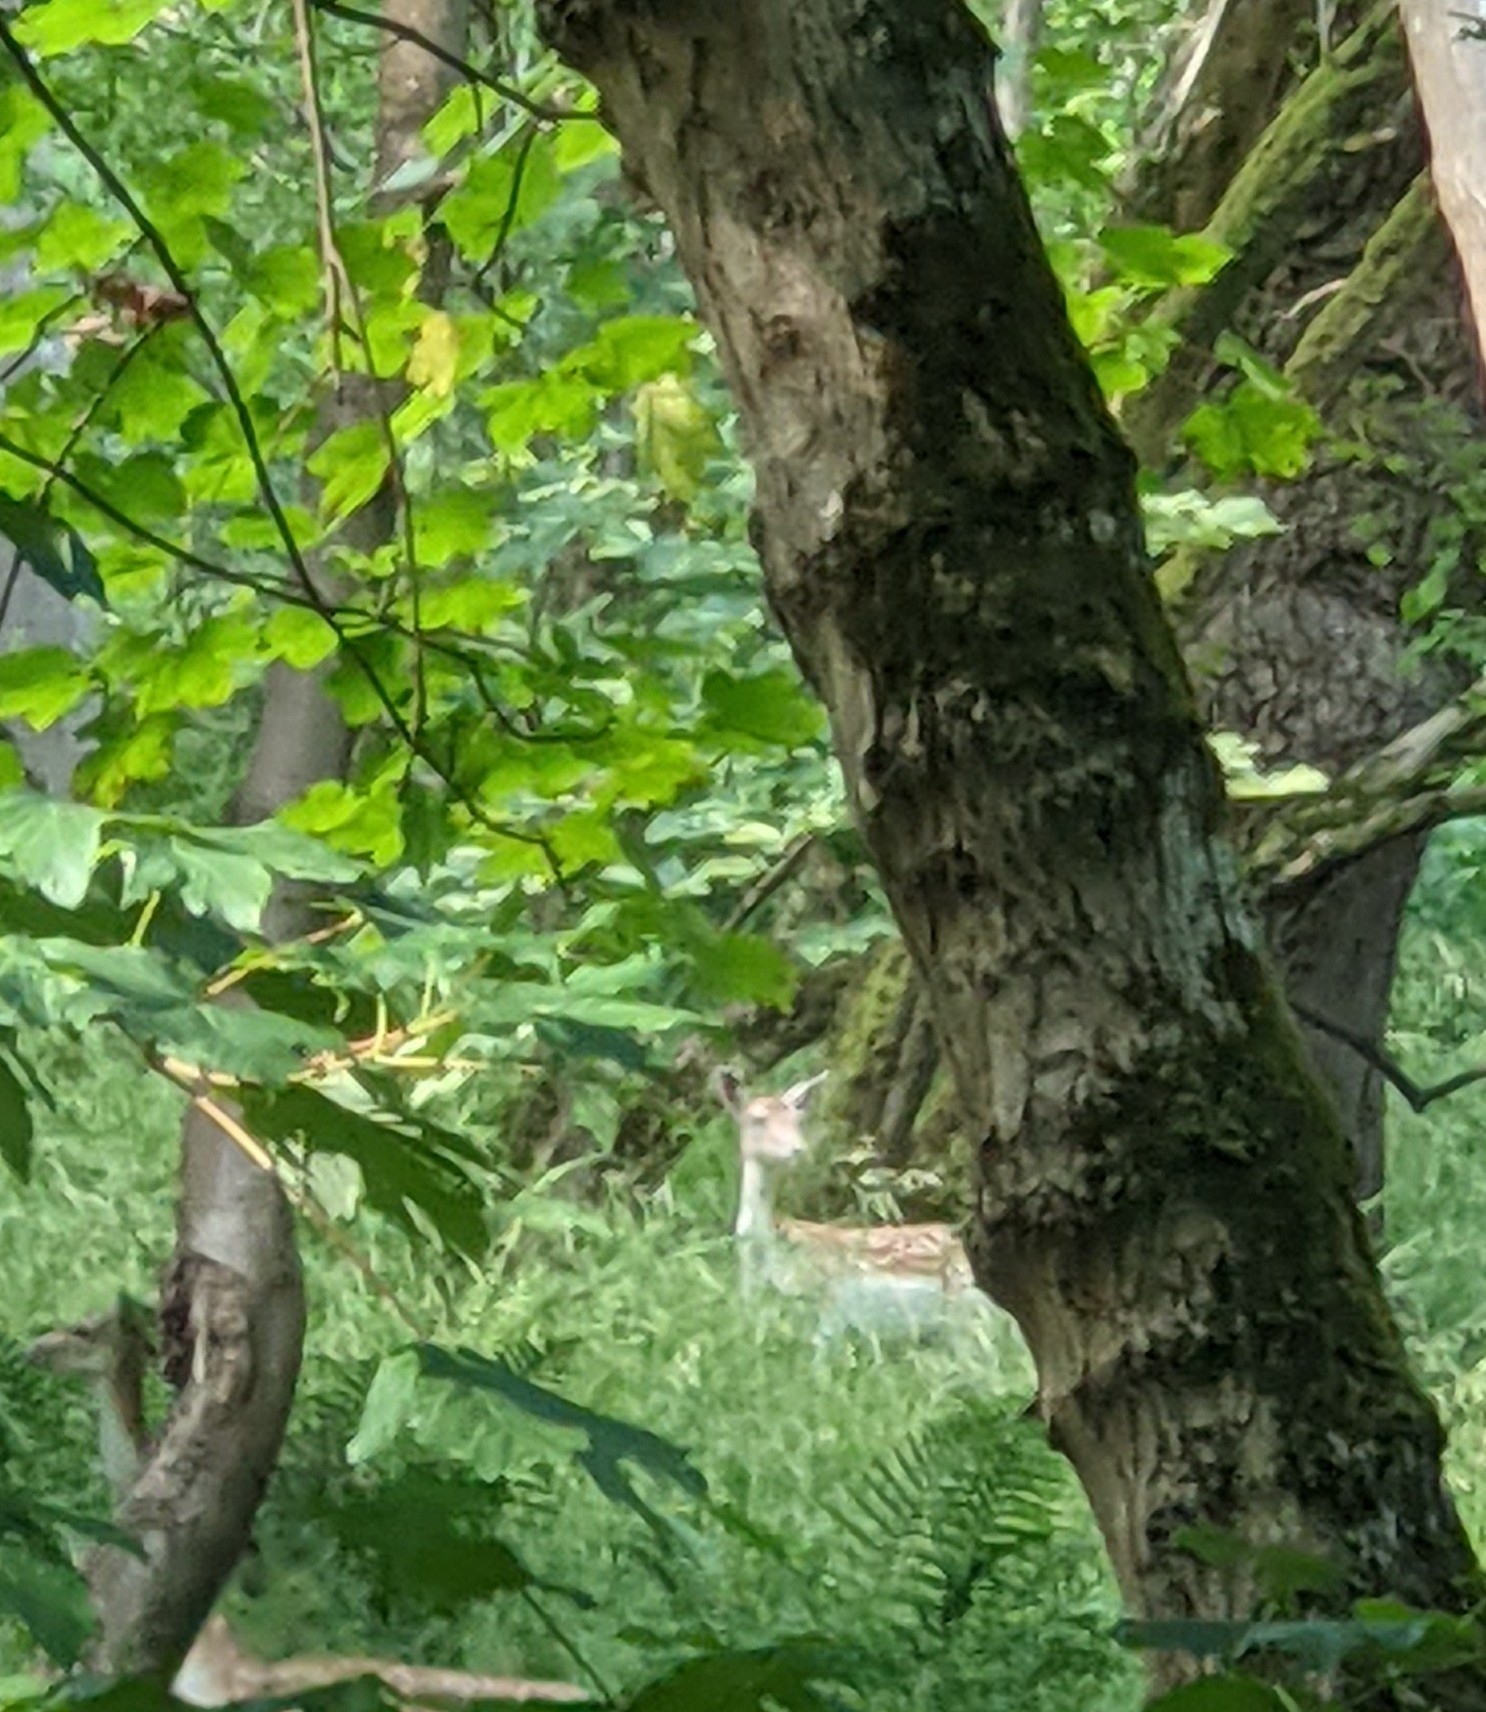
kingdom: Animalia
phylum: Chordata
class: Mammalia
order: Artiodactyla
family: Cervidae
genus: Dama
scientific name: Dama dama
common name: Fallow deer
